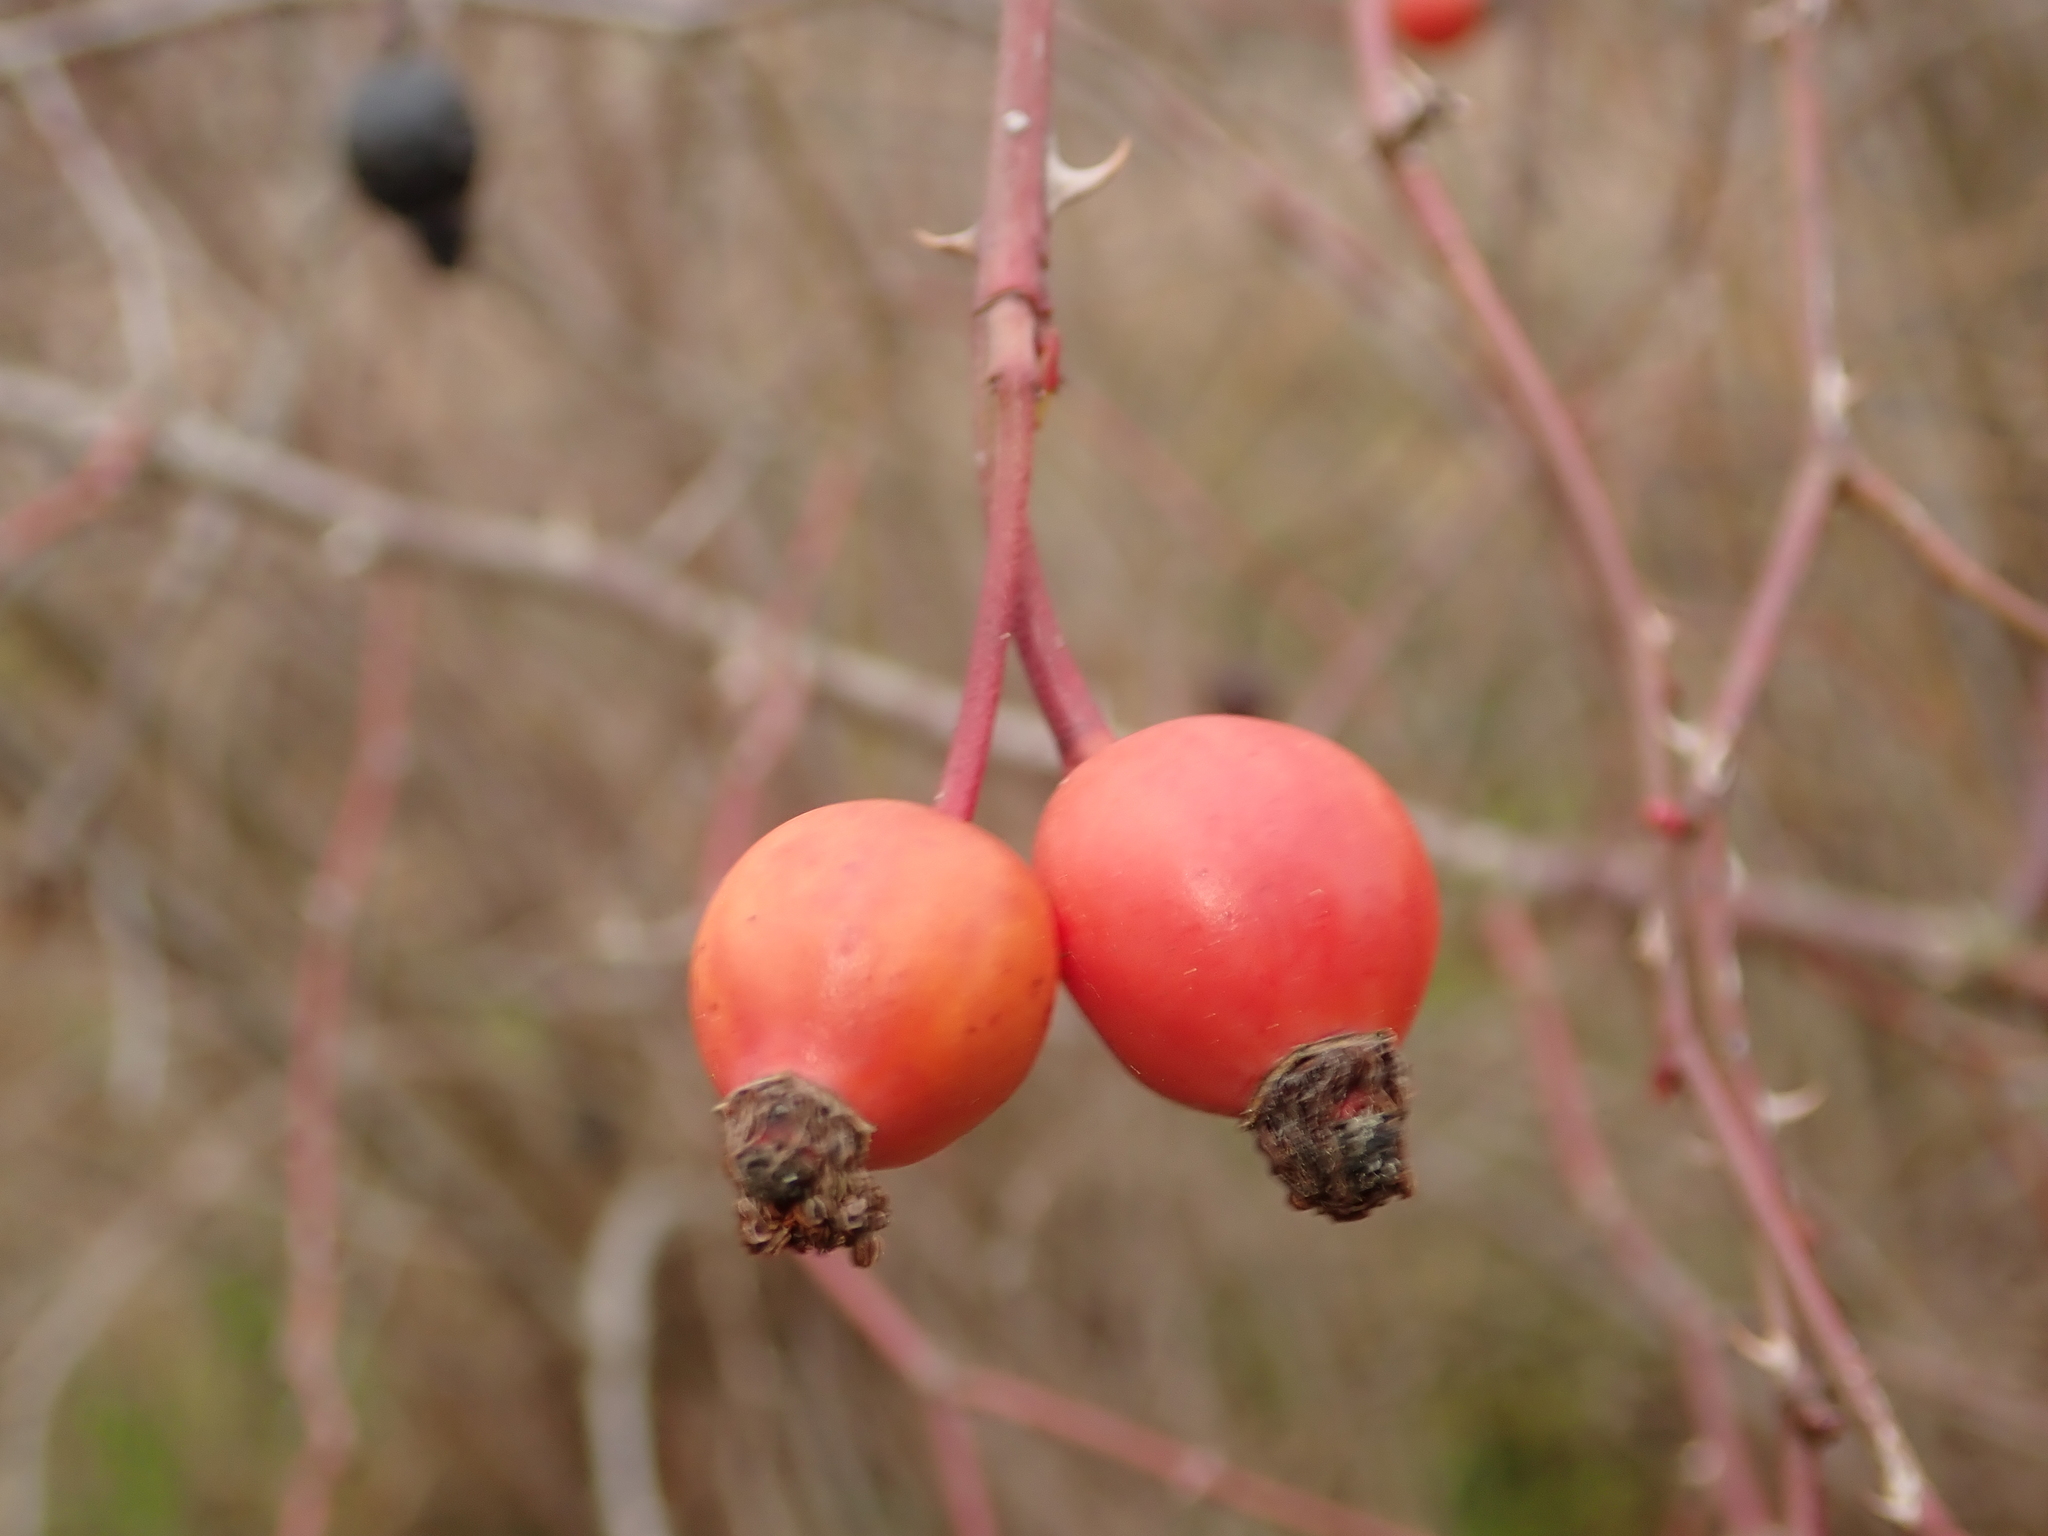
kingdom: Plantae
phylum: Tracheophyta
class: Magnoliopsida
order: Rosales
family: Rosaceae
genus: Rosa
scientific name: Rosa canina
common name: Dog rose
